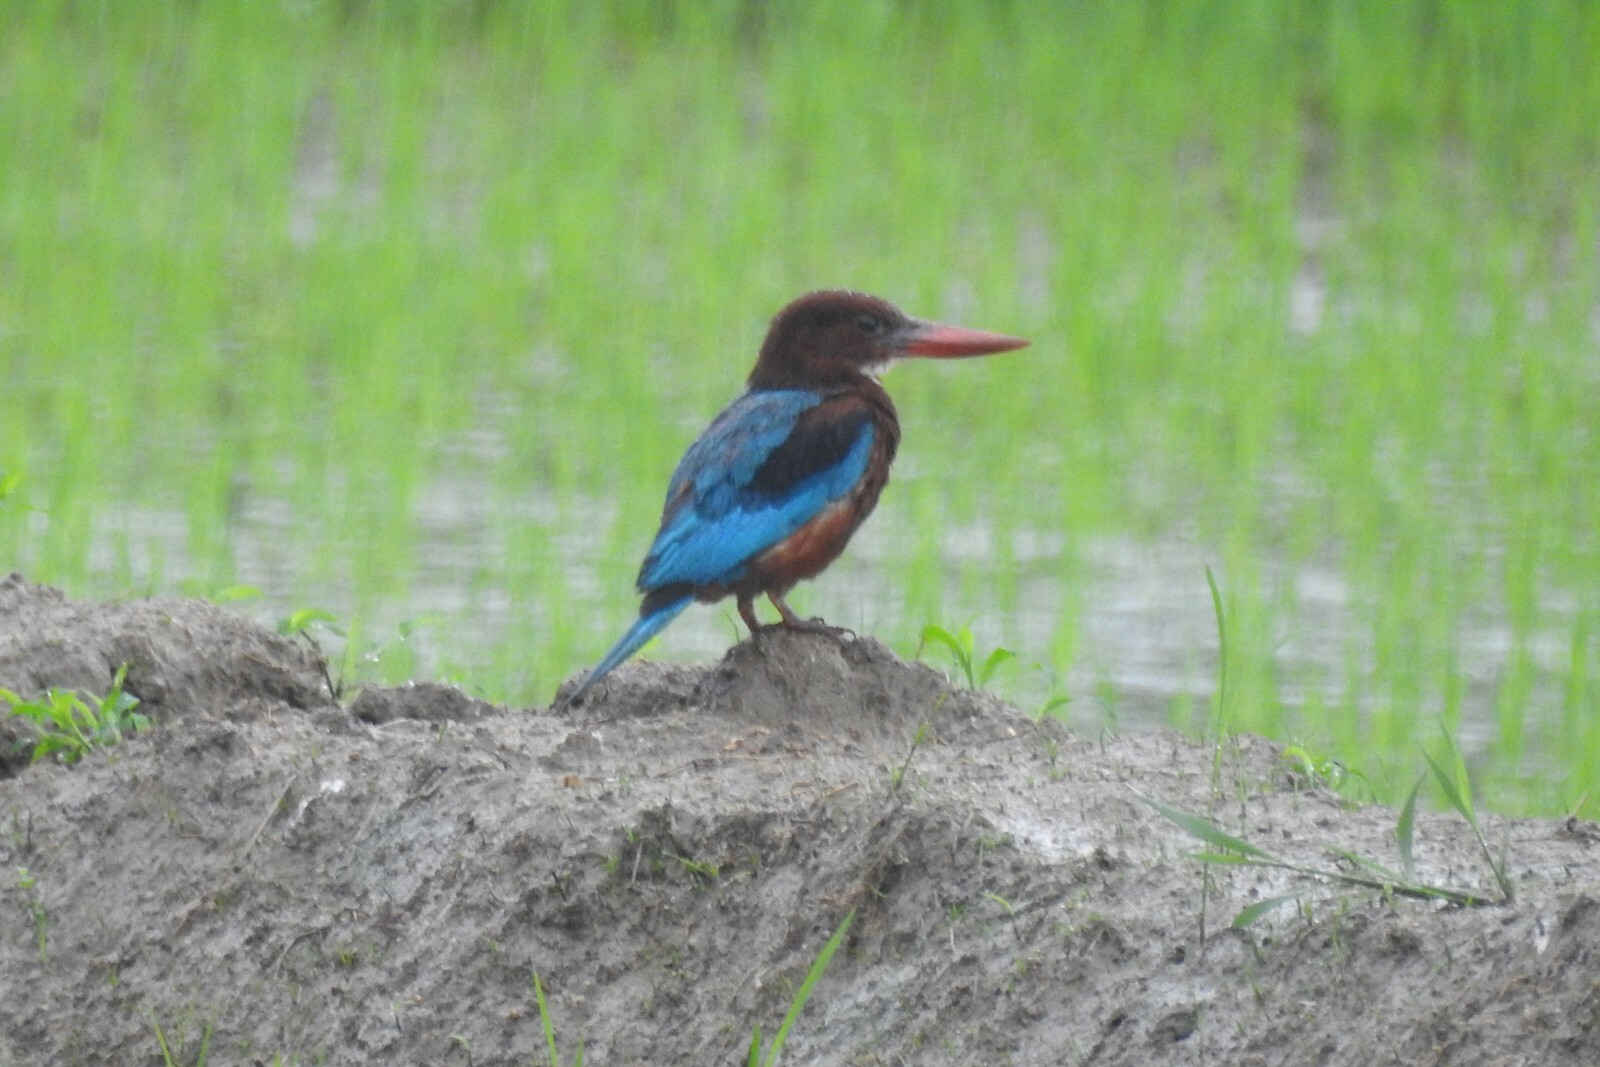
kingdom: Animalia
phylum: Chordata
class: Aves
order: Coraciiformes
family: Alcedinidae
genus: Halcyon
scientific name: Halcyon smyrnensis
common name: White-throated kingfisher
